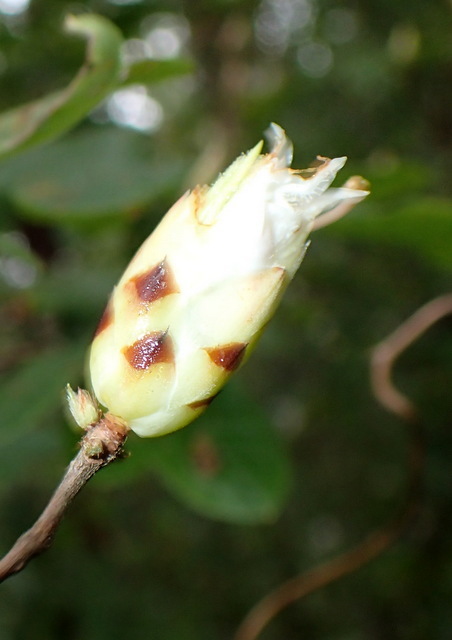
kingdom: Plantae
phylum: Tracheophyta
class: Magnoliopsida
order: Ericales
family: Ericaceae
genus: Rhododendron
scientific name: Rhododendron serrulatum
